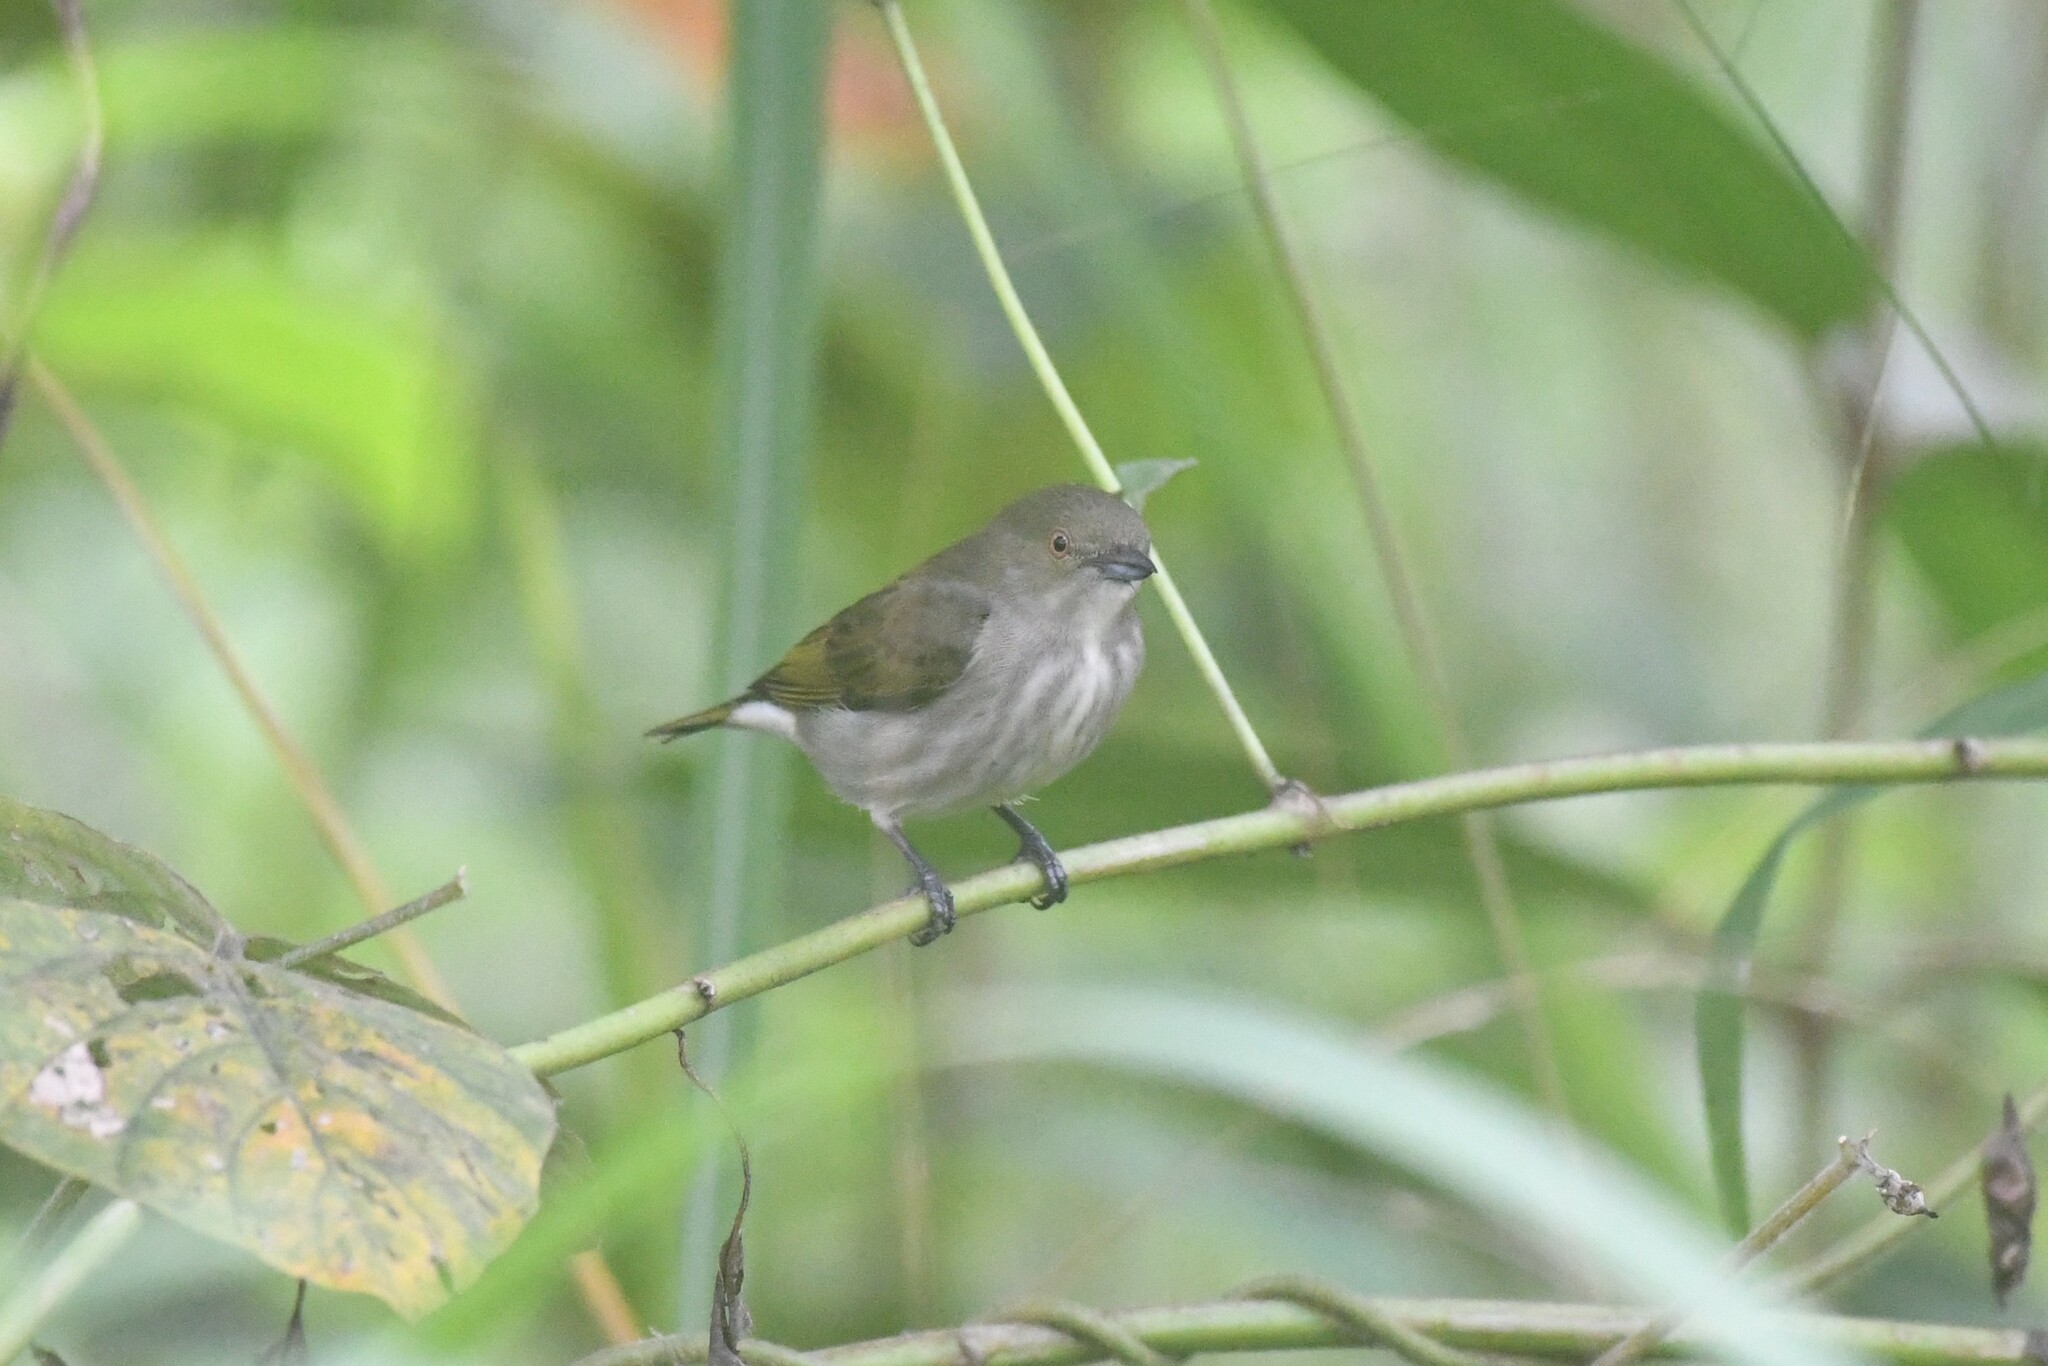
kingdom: Animalia
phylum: Chordata
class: Aves
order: Passeriformes
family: Dicaeidae
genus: Dicaeum
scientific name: Dicaeum agile
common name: Thick-billed flowerpecker
